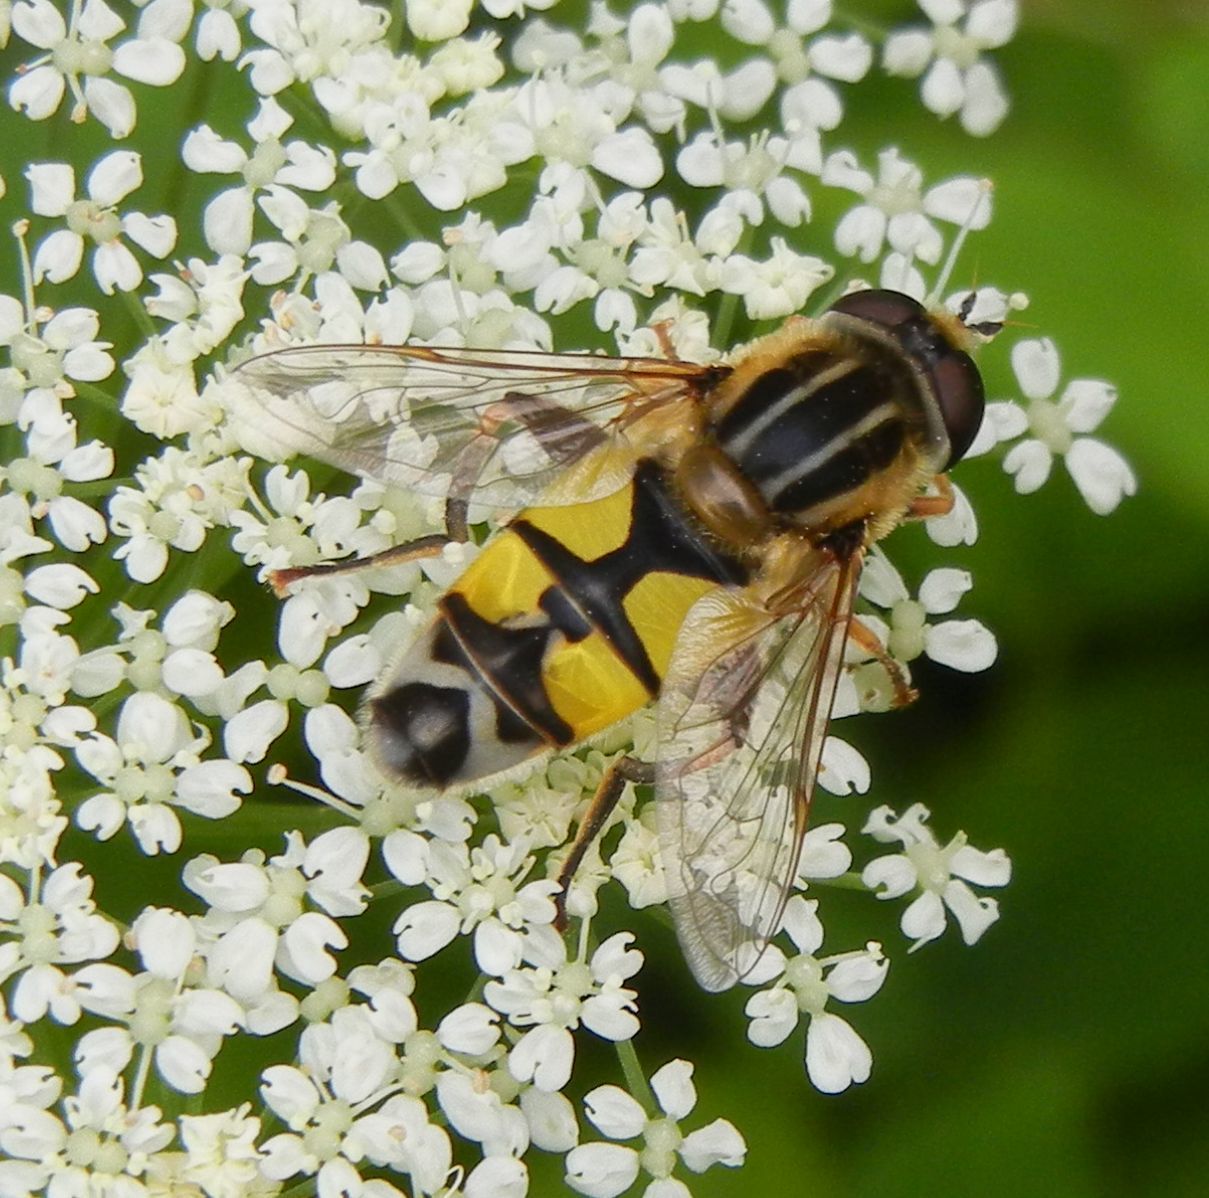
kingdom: Animalia
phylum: Arthropoda
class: Insecta
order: Diptera
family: Syrphidae
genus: Helophilus
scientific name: Helophilus trivittatus
